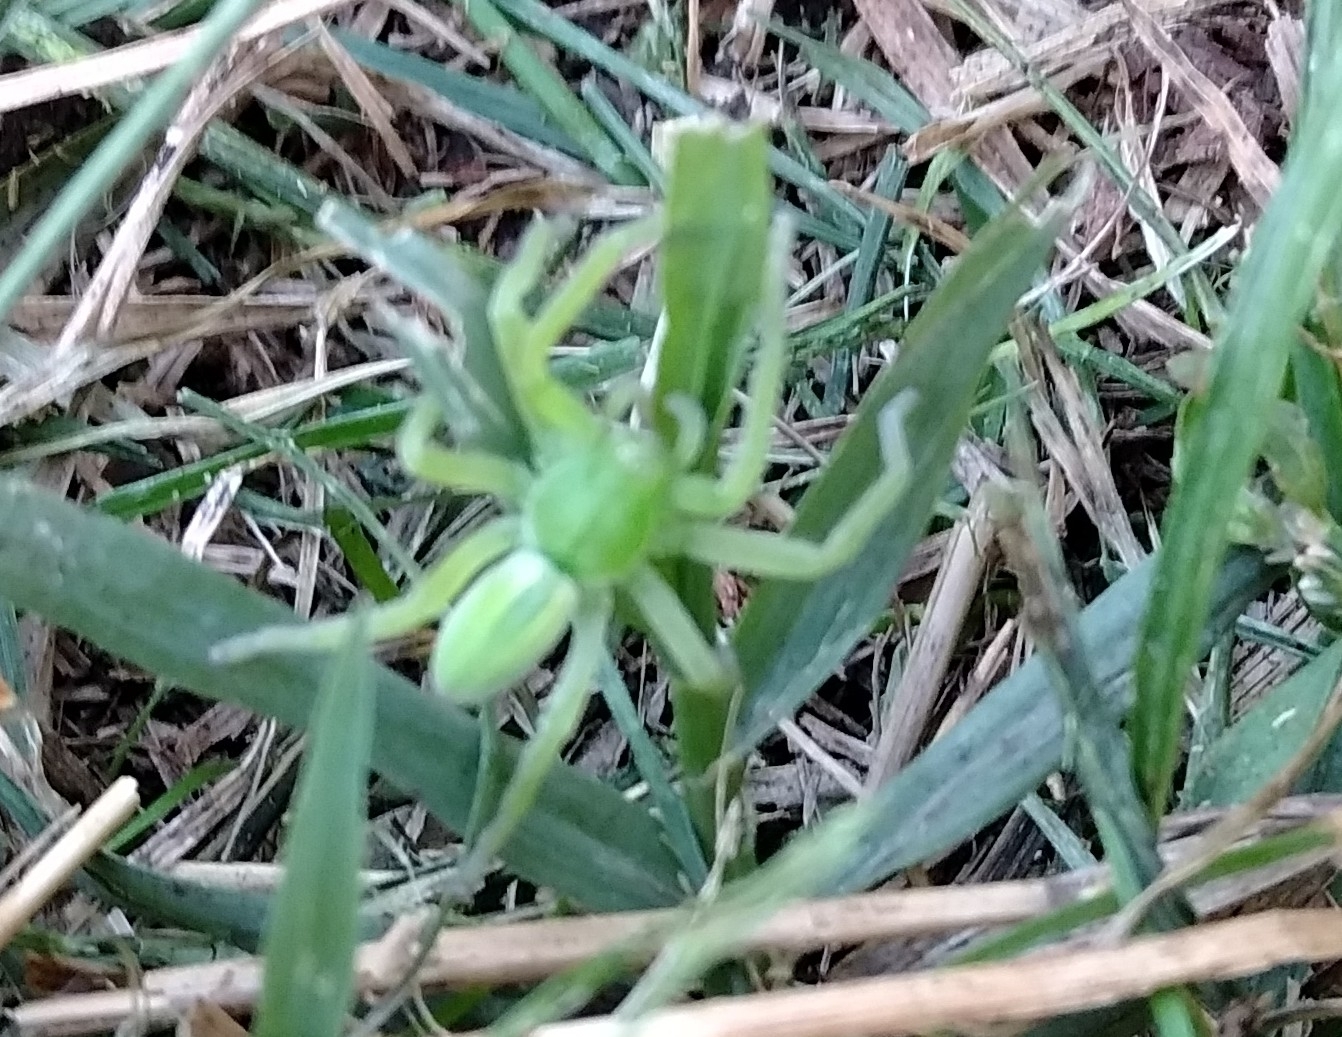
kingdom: Animalia
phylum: Arthropoda
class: Arachnida
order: Araneae
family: Sparassidae
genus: Micrommata
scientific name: Micrommata virescens
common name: Green spider
